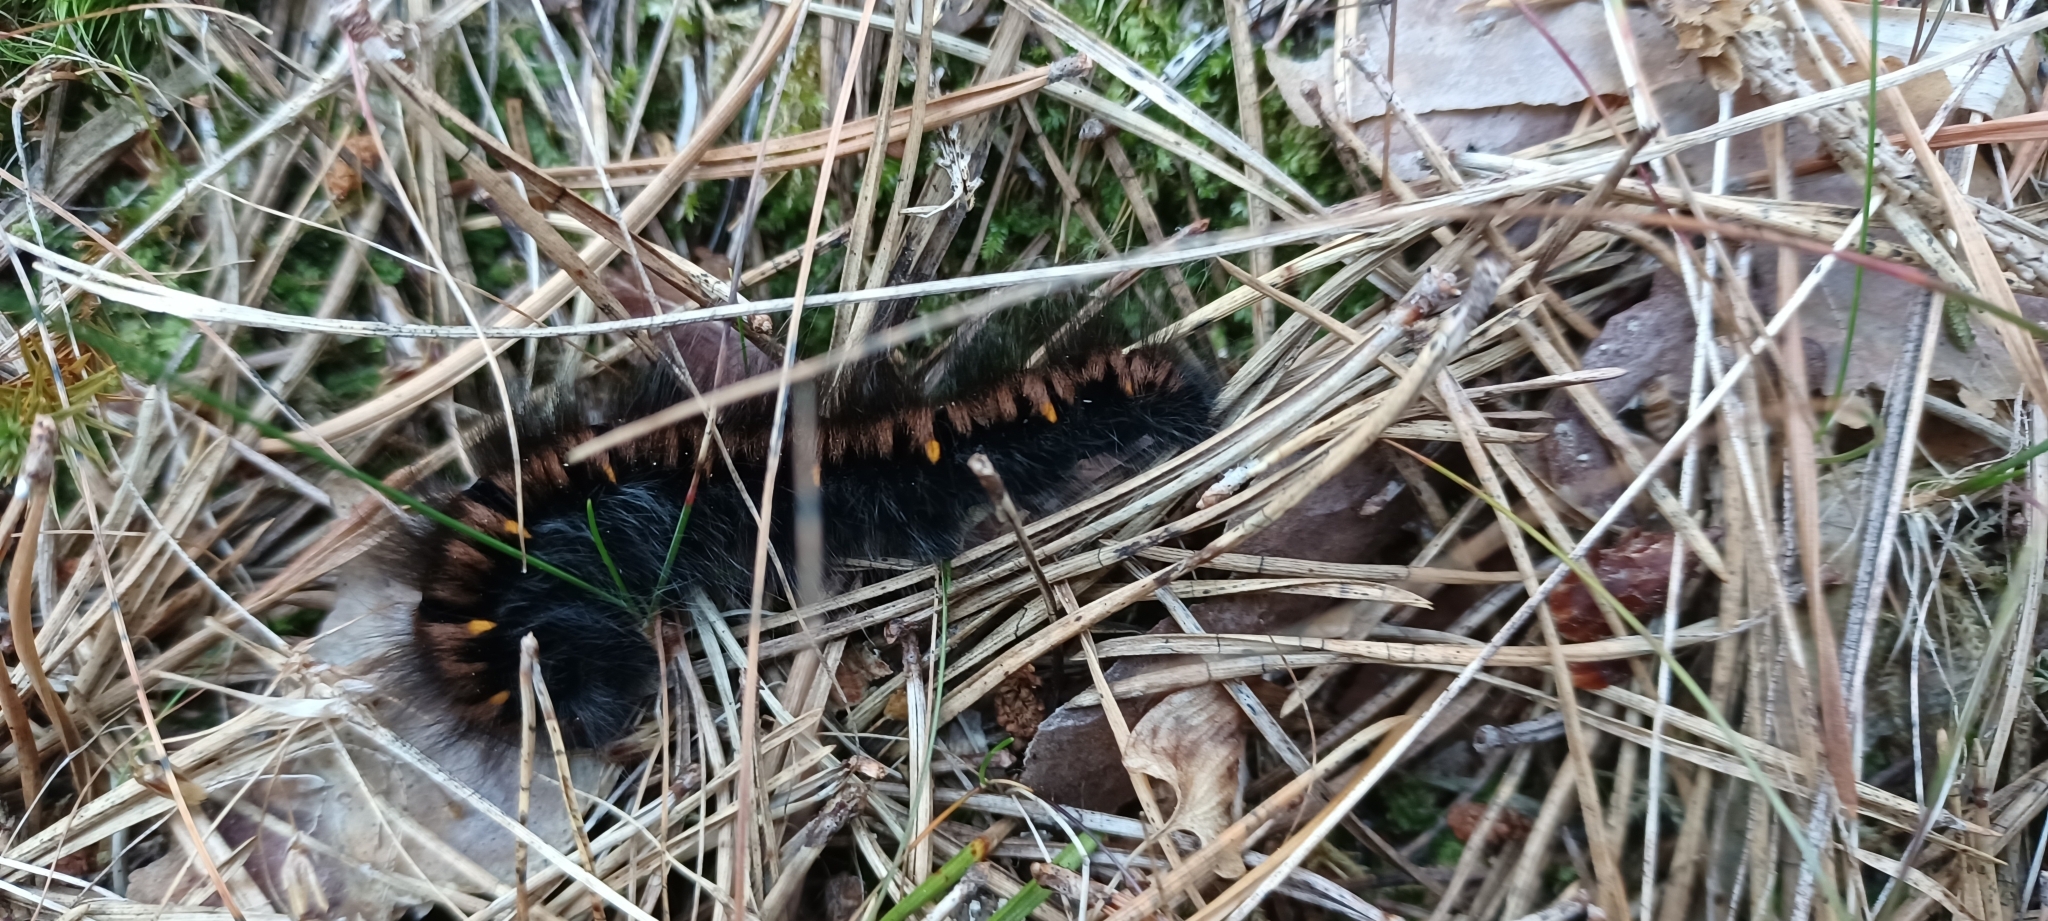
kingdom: Animalia
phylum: Arthropoda
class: Insecta
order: Lepidoptera
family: Lasiocampidae
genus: Macrothylacia
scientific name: Macrothylacia rubi
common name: Fox moth
